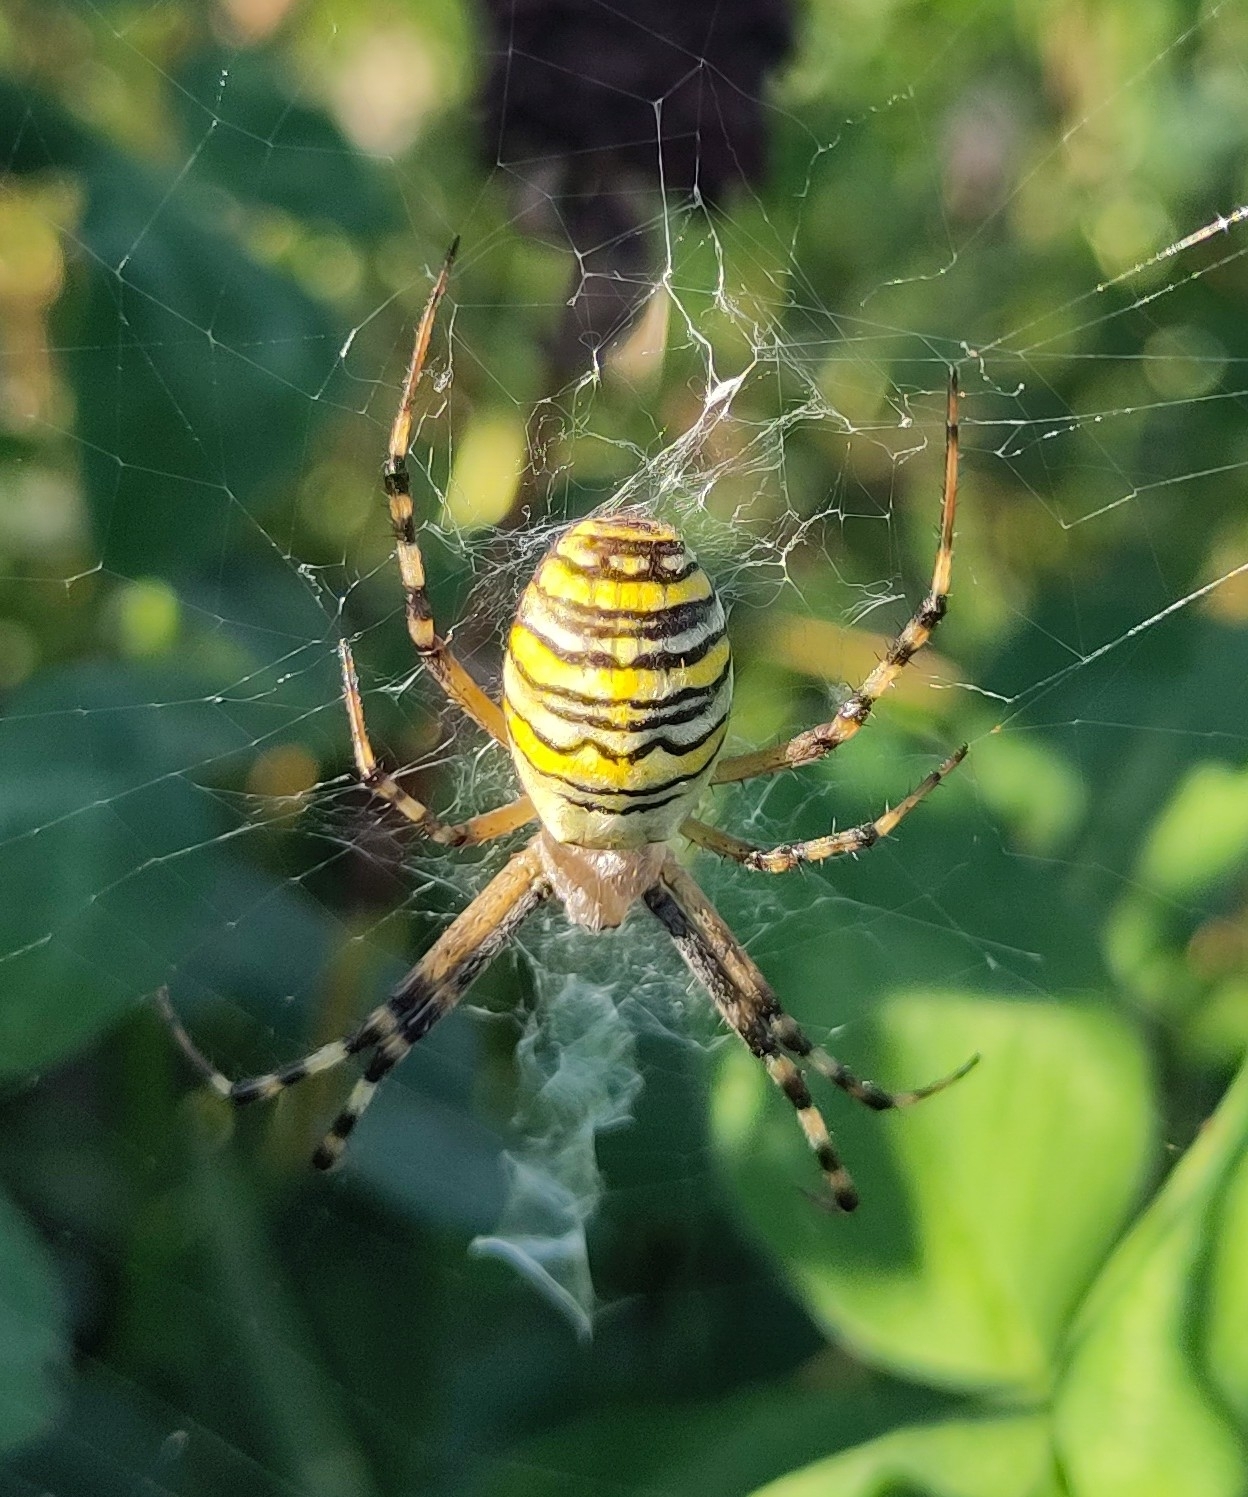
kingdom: Animalia
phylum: Arthropoda
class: Arachnida
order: Araneae
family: Araneidae
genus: Argiope
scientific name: Argiope bruennichi
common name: Wasp spider
